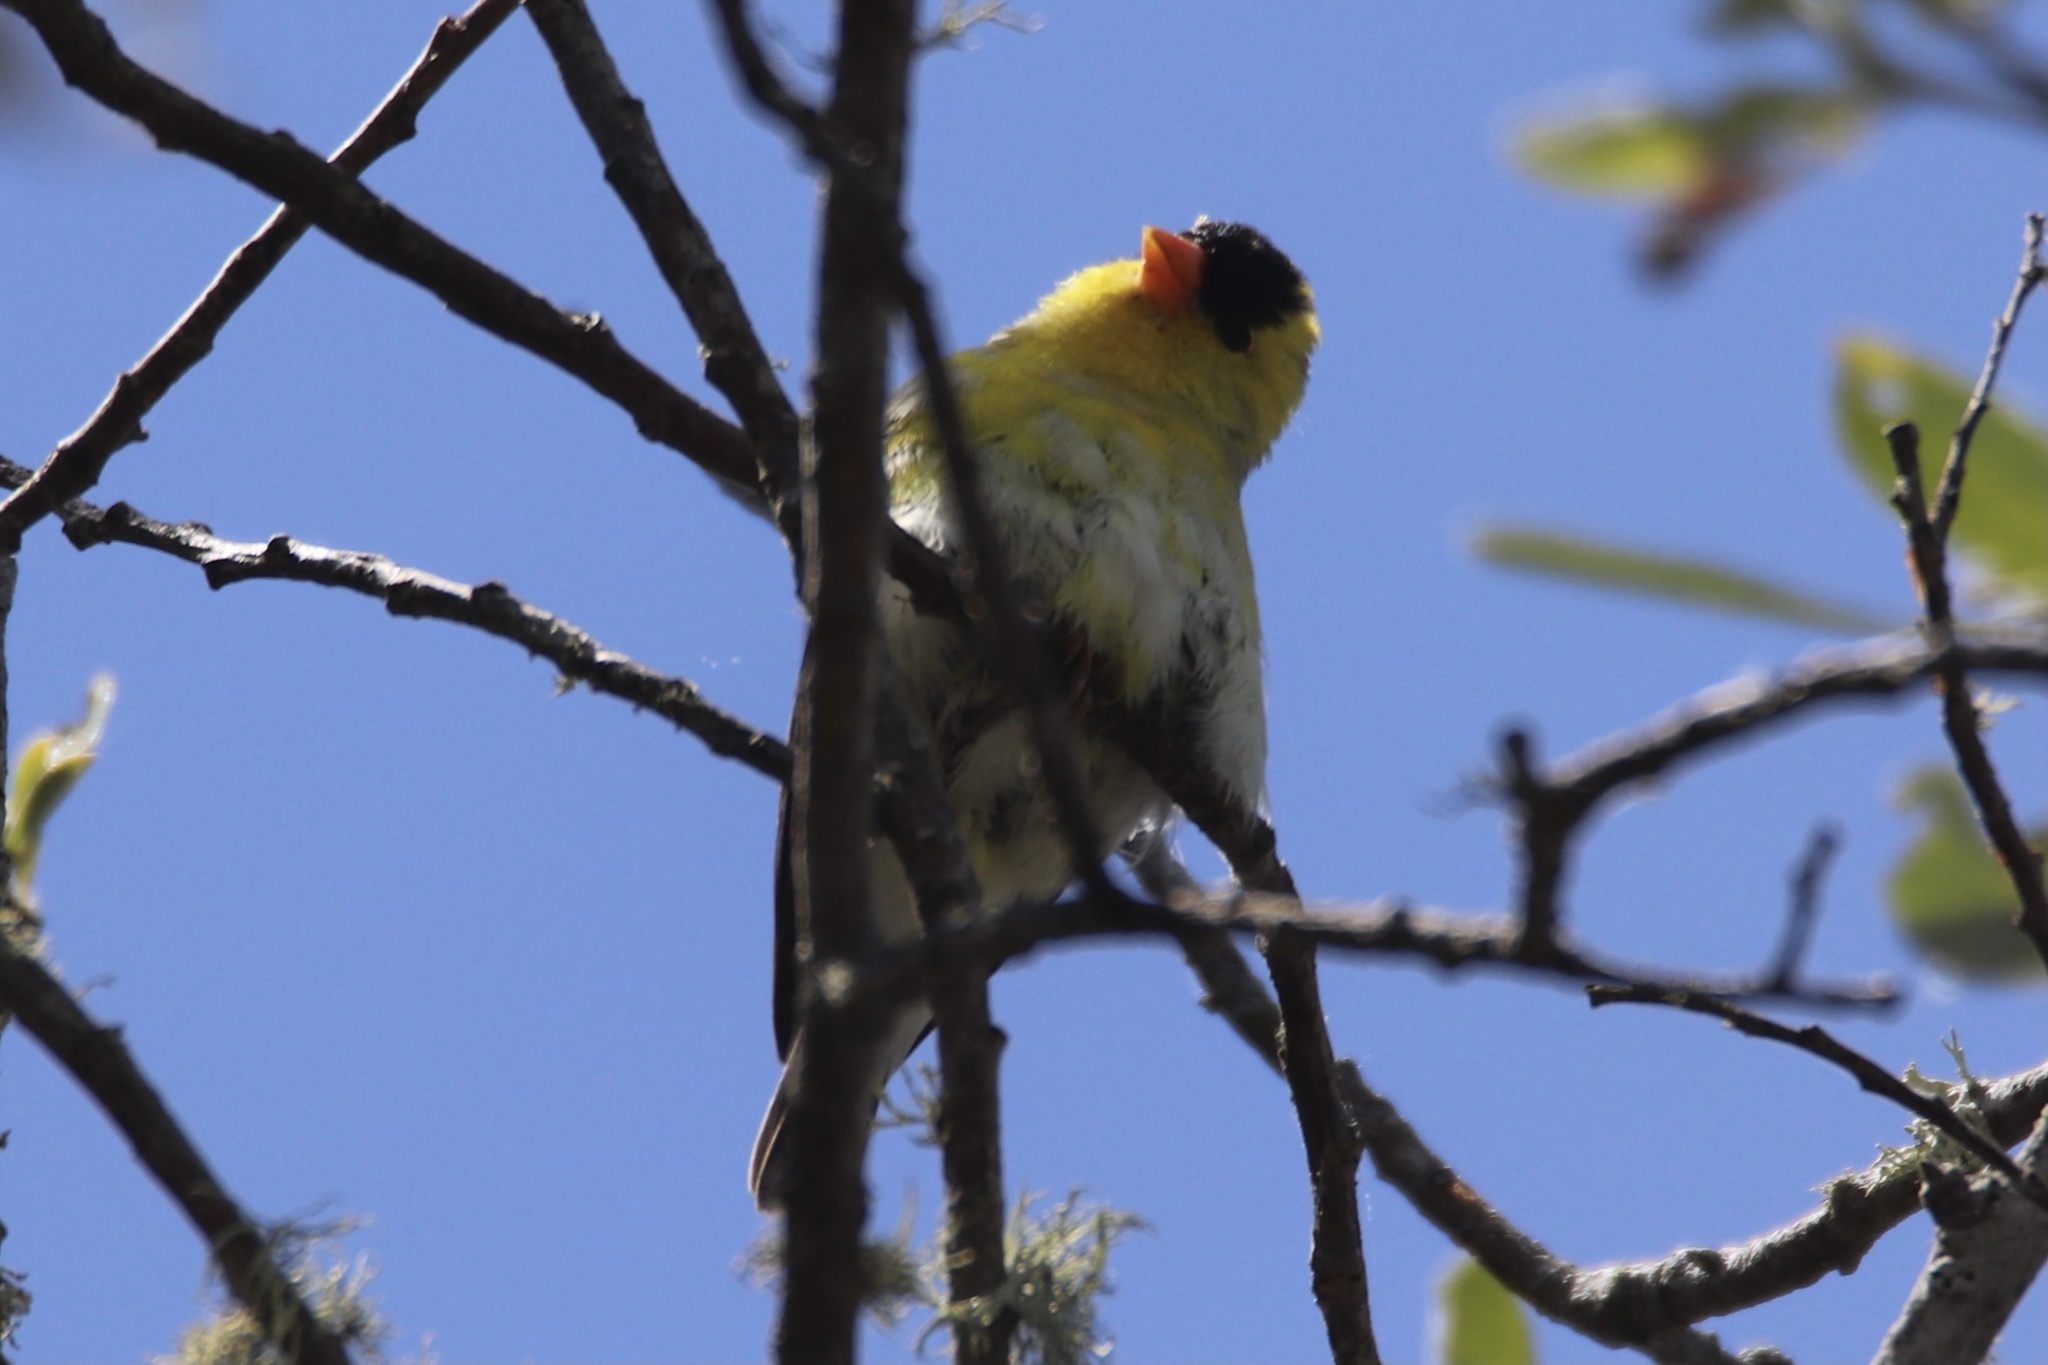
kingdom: Animalia
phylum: Chordata
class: Aves
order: Passeriformes
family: Fringillidae
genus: Spinus
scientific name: Spinus tristis
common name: American goldfinch
